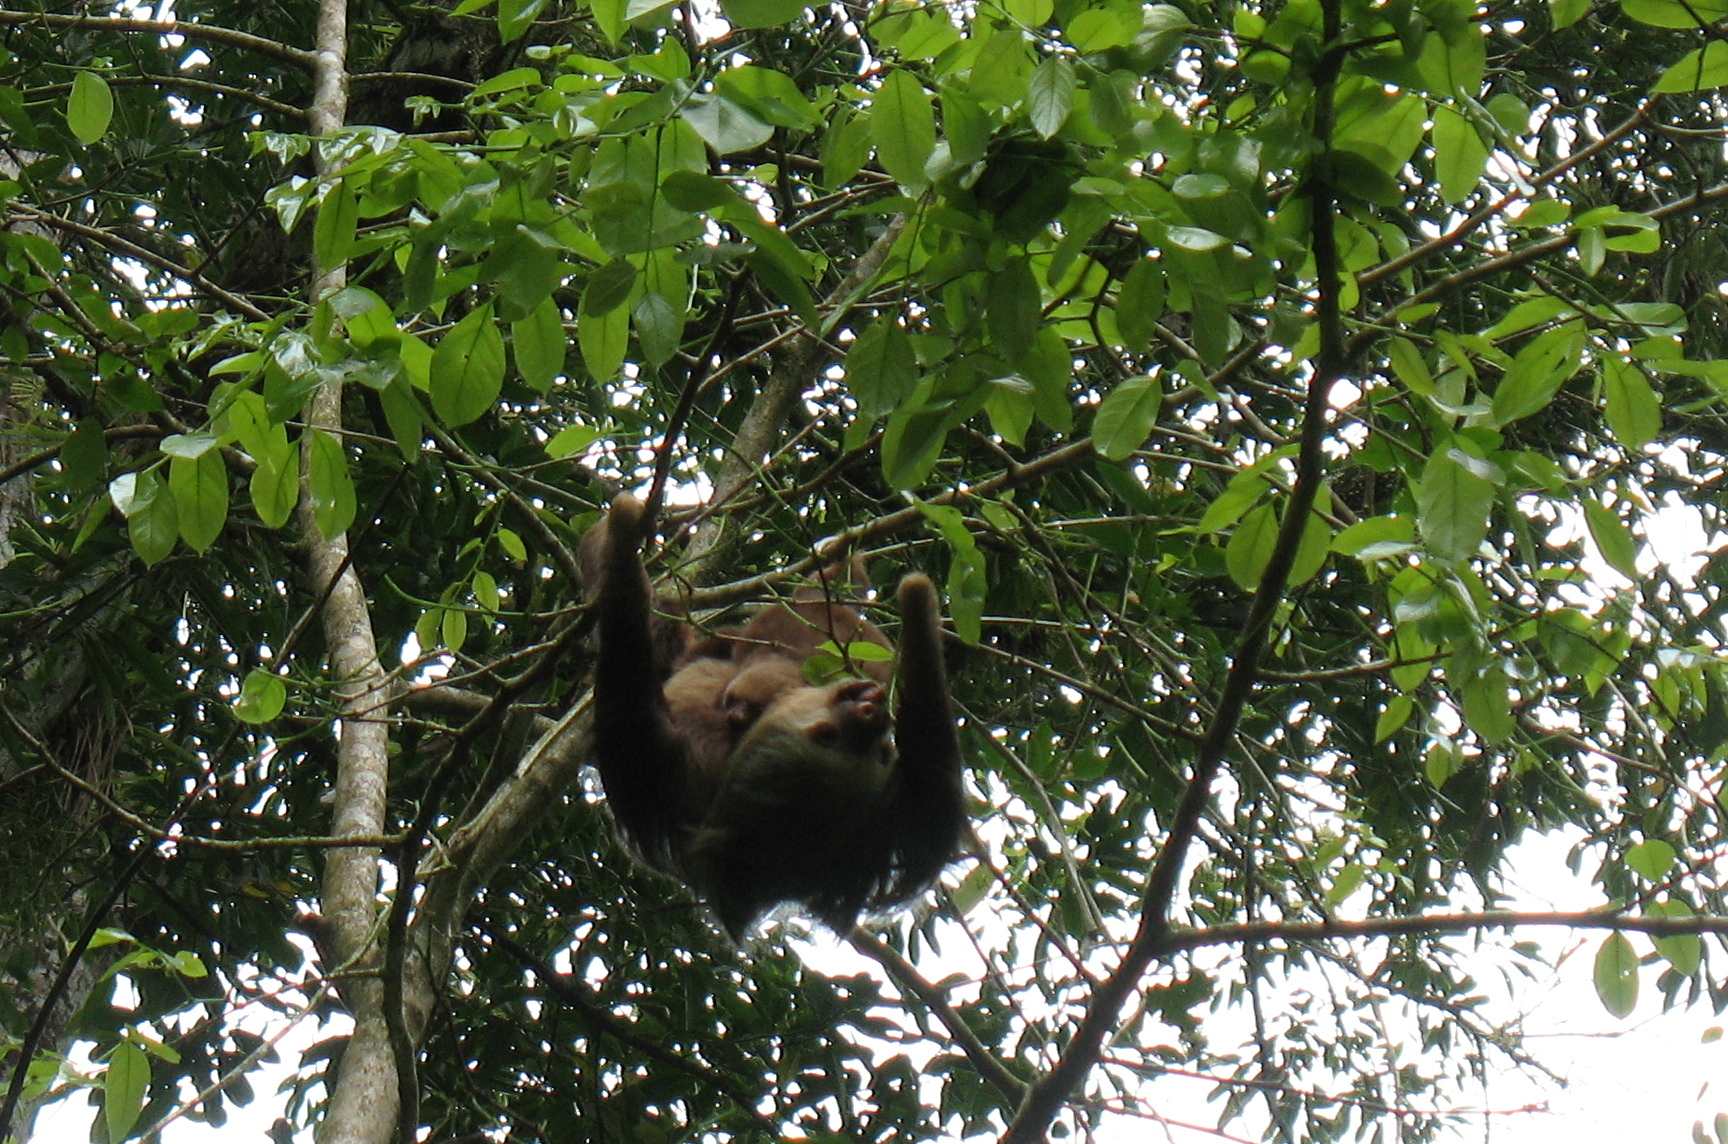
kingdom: Animalia
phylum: Chordata
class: Mammalia
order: Pilosa
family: Megalonychidae
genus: Choloepus
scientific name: Choloepus hoffmanni
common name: Hoffmann's two-toed sloth
